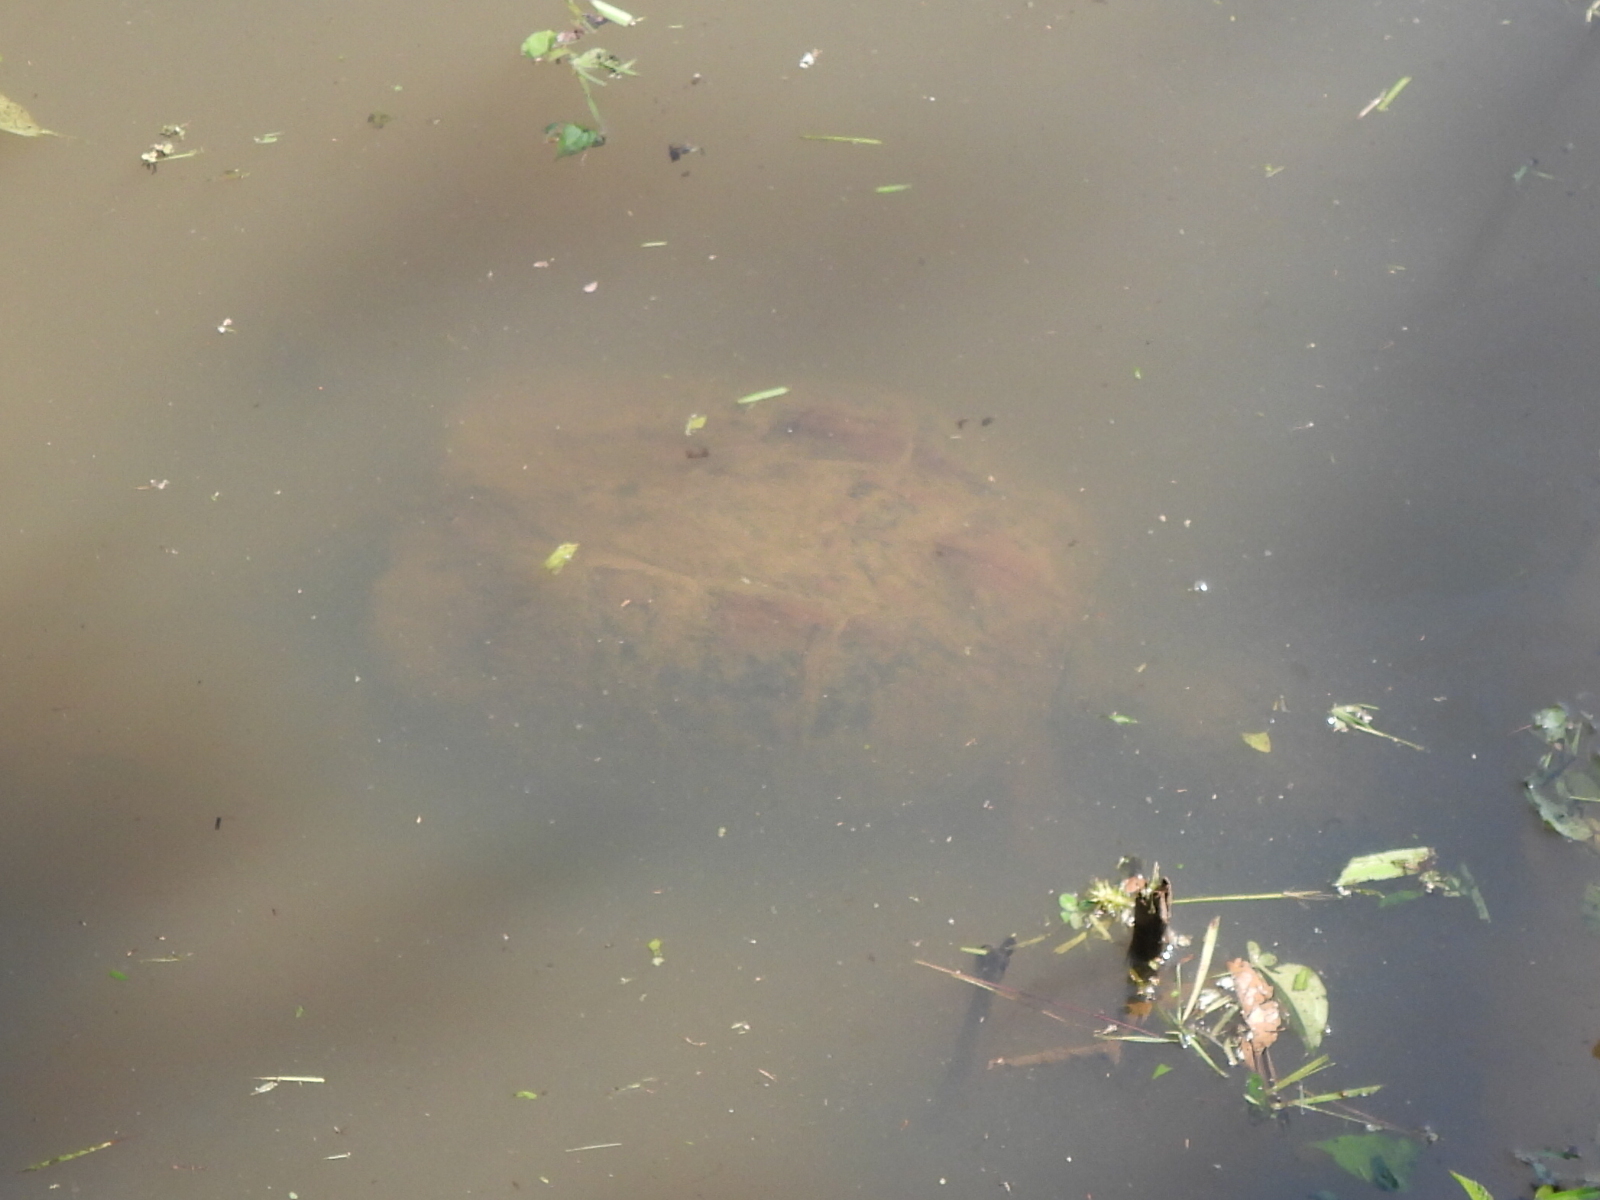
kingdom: Animalia
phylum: Chordata
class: Testudines
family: Chelydridae
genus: Chelydra
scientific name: Chelydra serpentina
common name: Common snapping turtle
